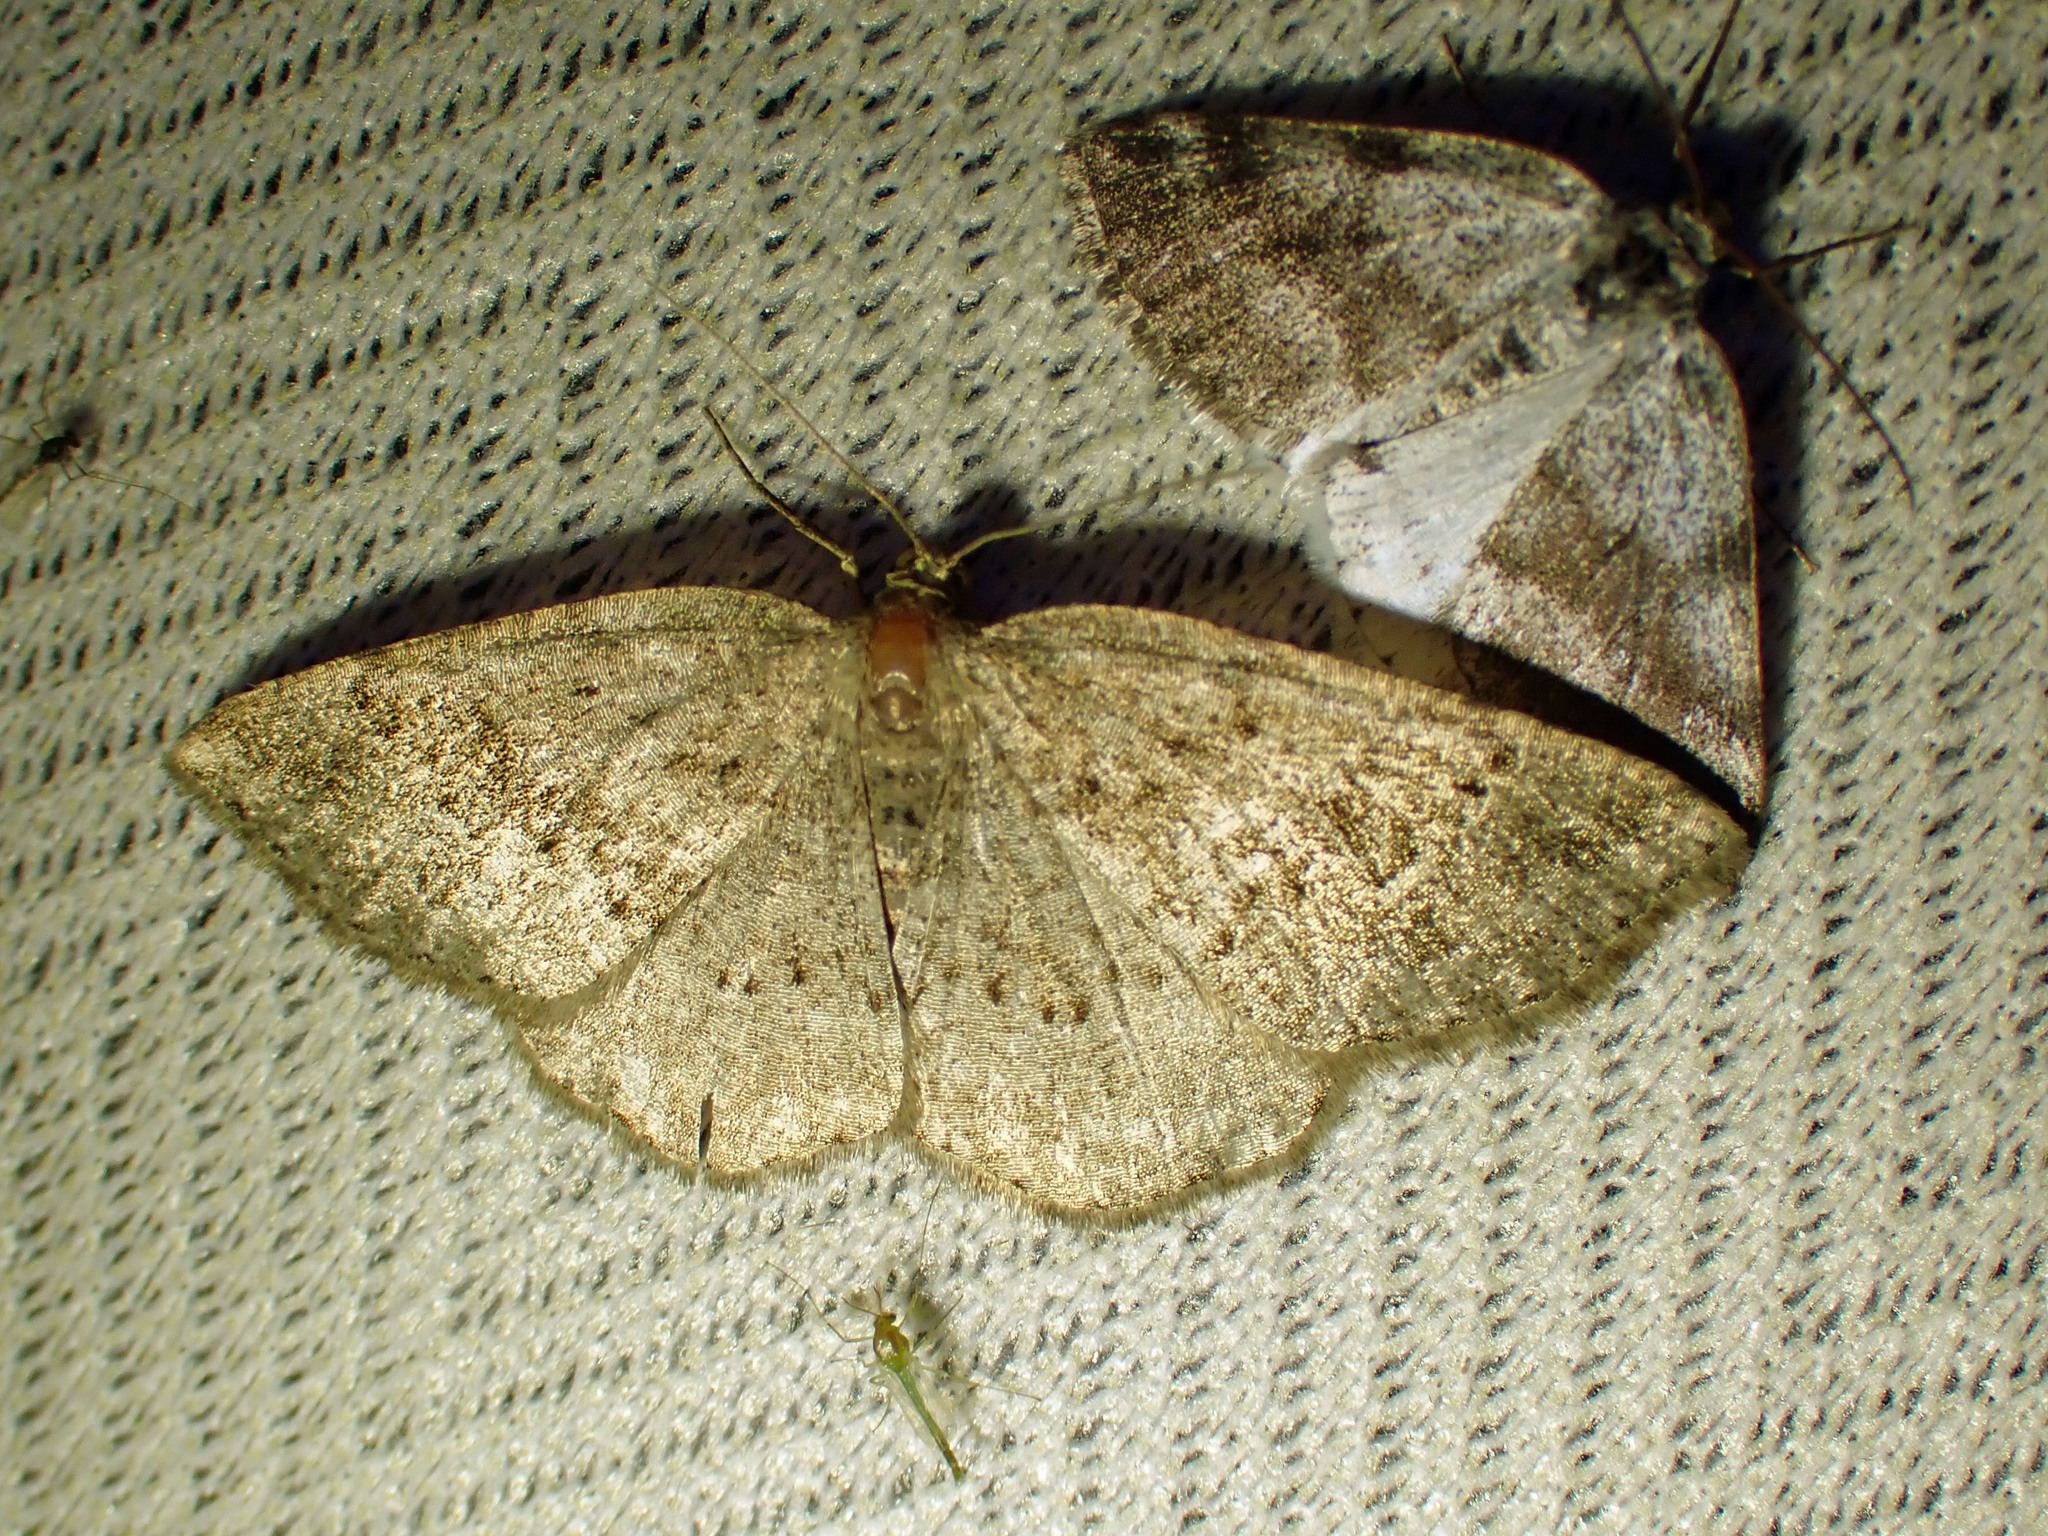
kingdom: Animalia
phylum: Arthropoda
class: Insecta
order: Lepidoptera
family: Geometridae
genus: Homochlodes
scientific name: Homochlodes fritillaria
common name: Pale homochlodes
